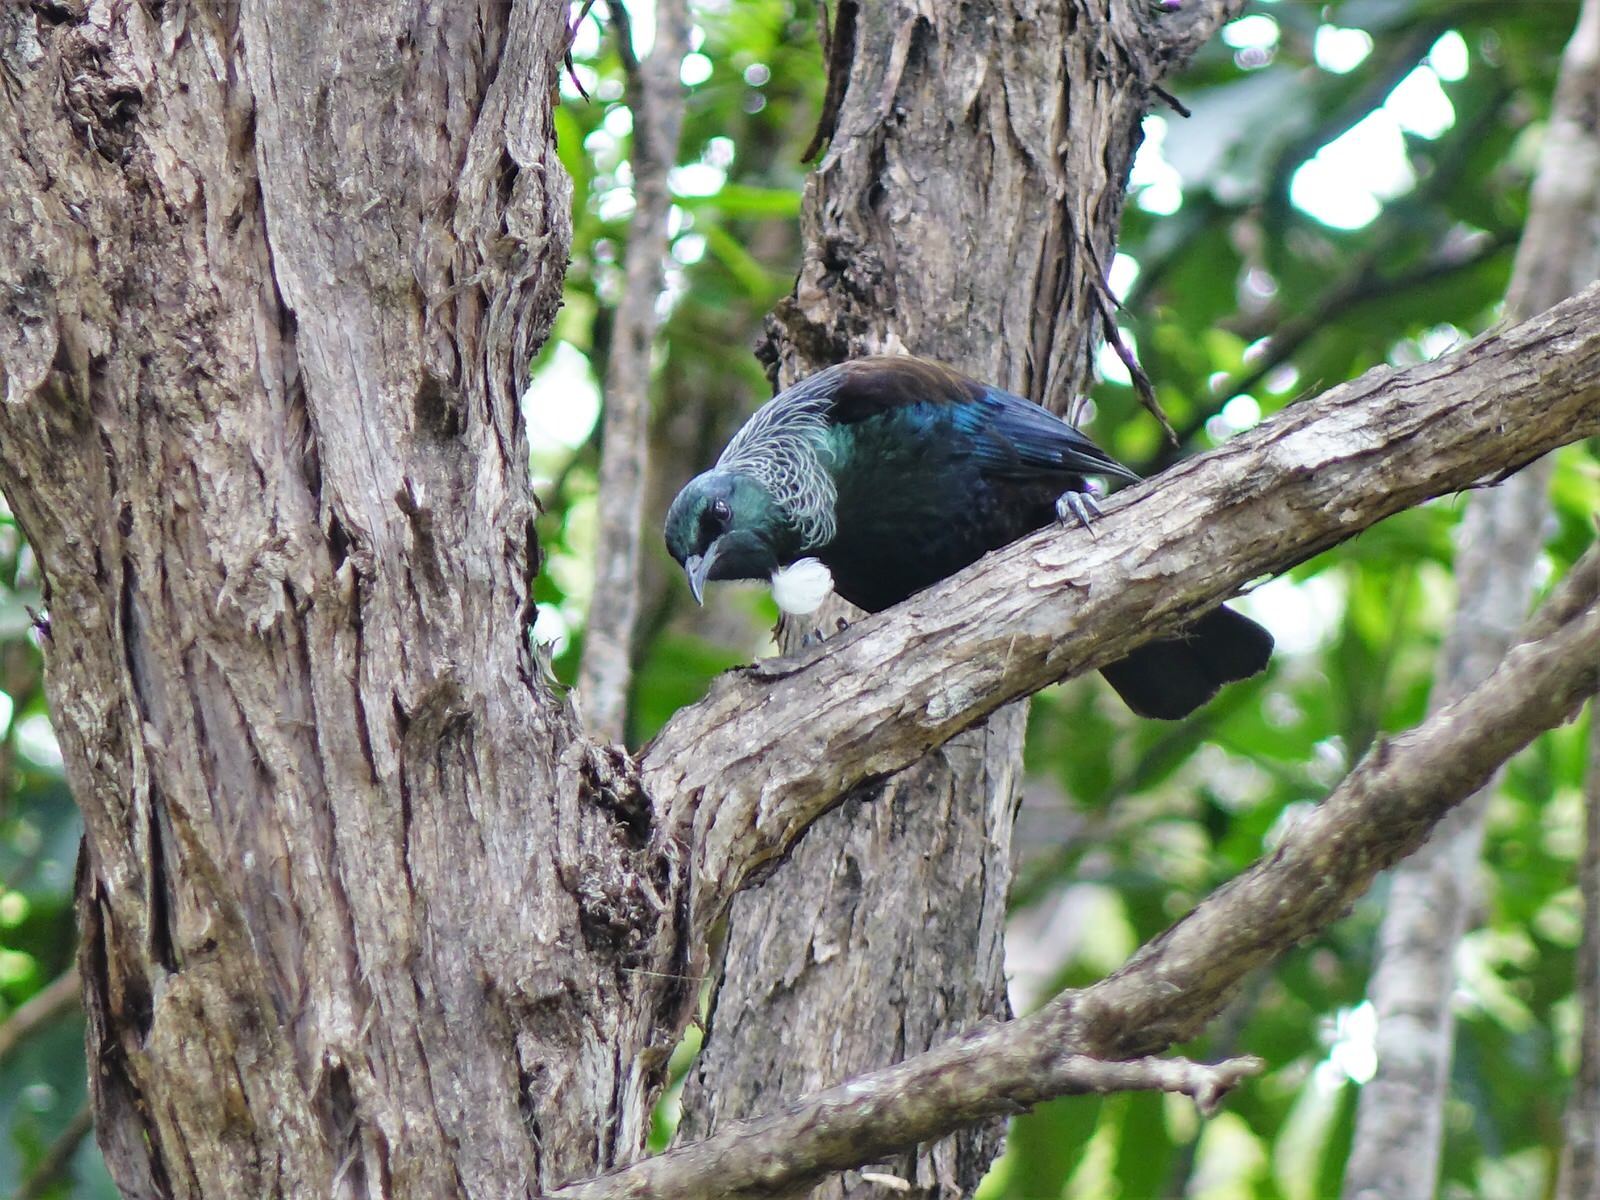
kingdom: Animalia
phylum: Chordata
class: Aves
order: Passeriformes
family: Meliphagidae
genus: Prosthemadera
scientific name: Prosthemadera novaeseelandiae
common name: Tui
